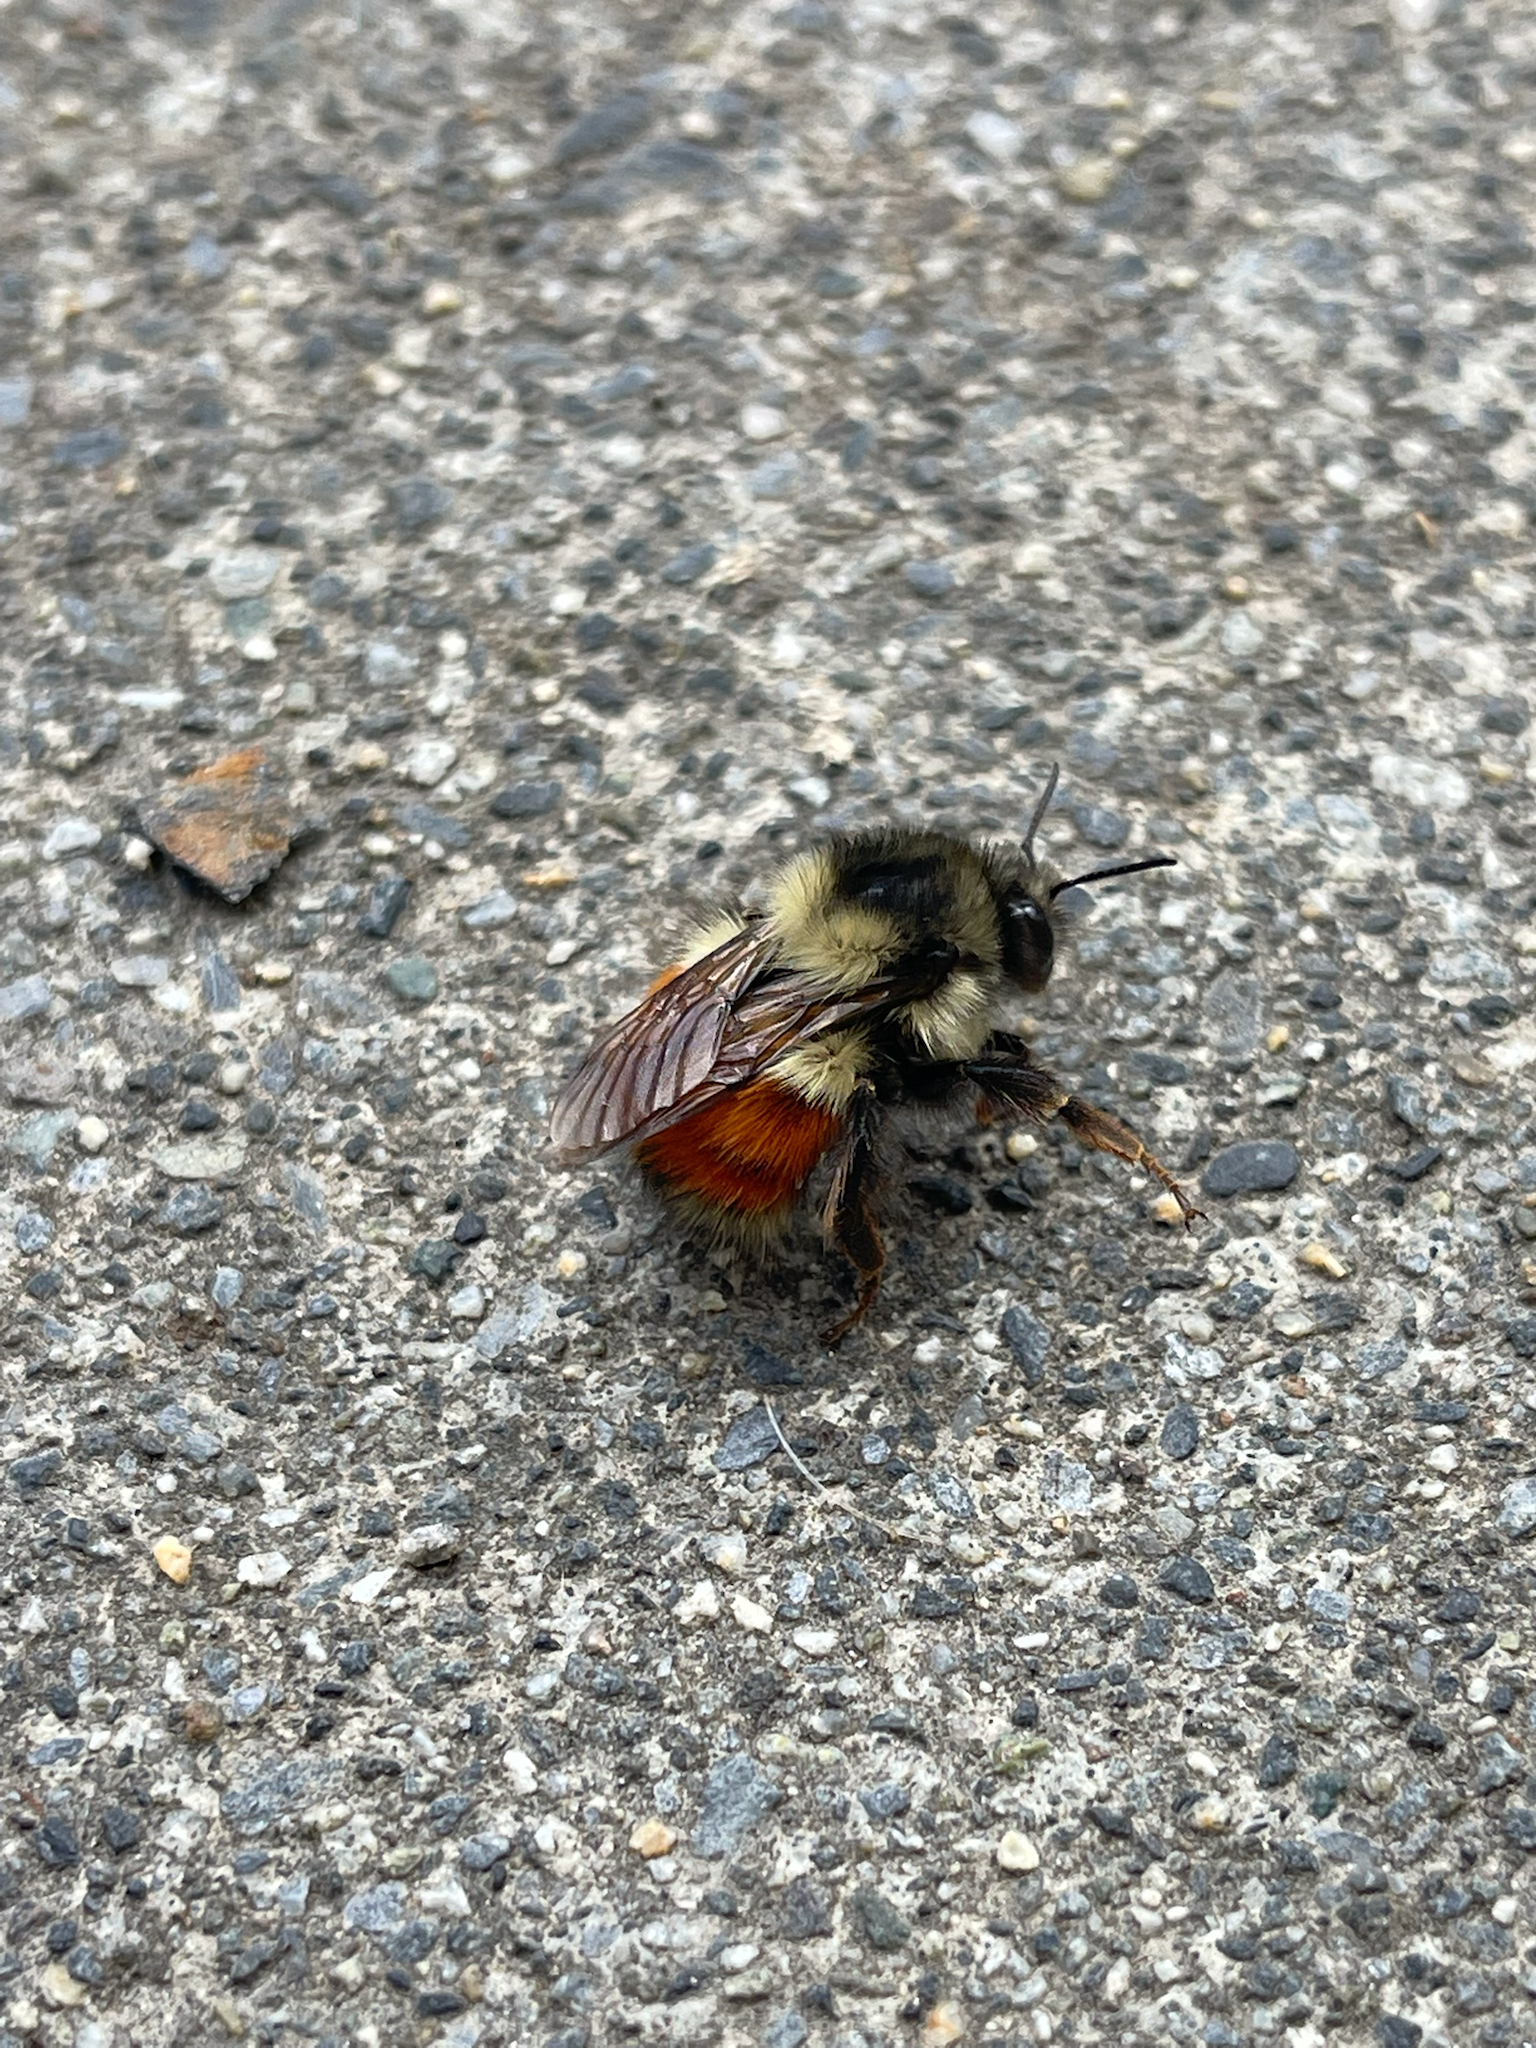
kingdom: Animalia
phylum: Arthropoda
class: Insecta
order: Hymenoptera
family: Apidae
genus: Bombus
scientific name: Bombus melanopygus
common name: Black tail bumble bee
